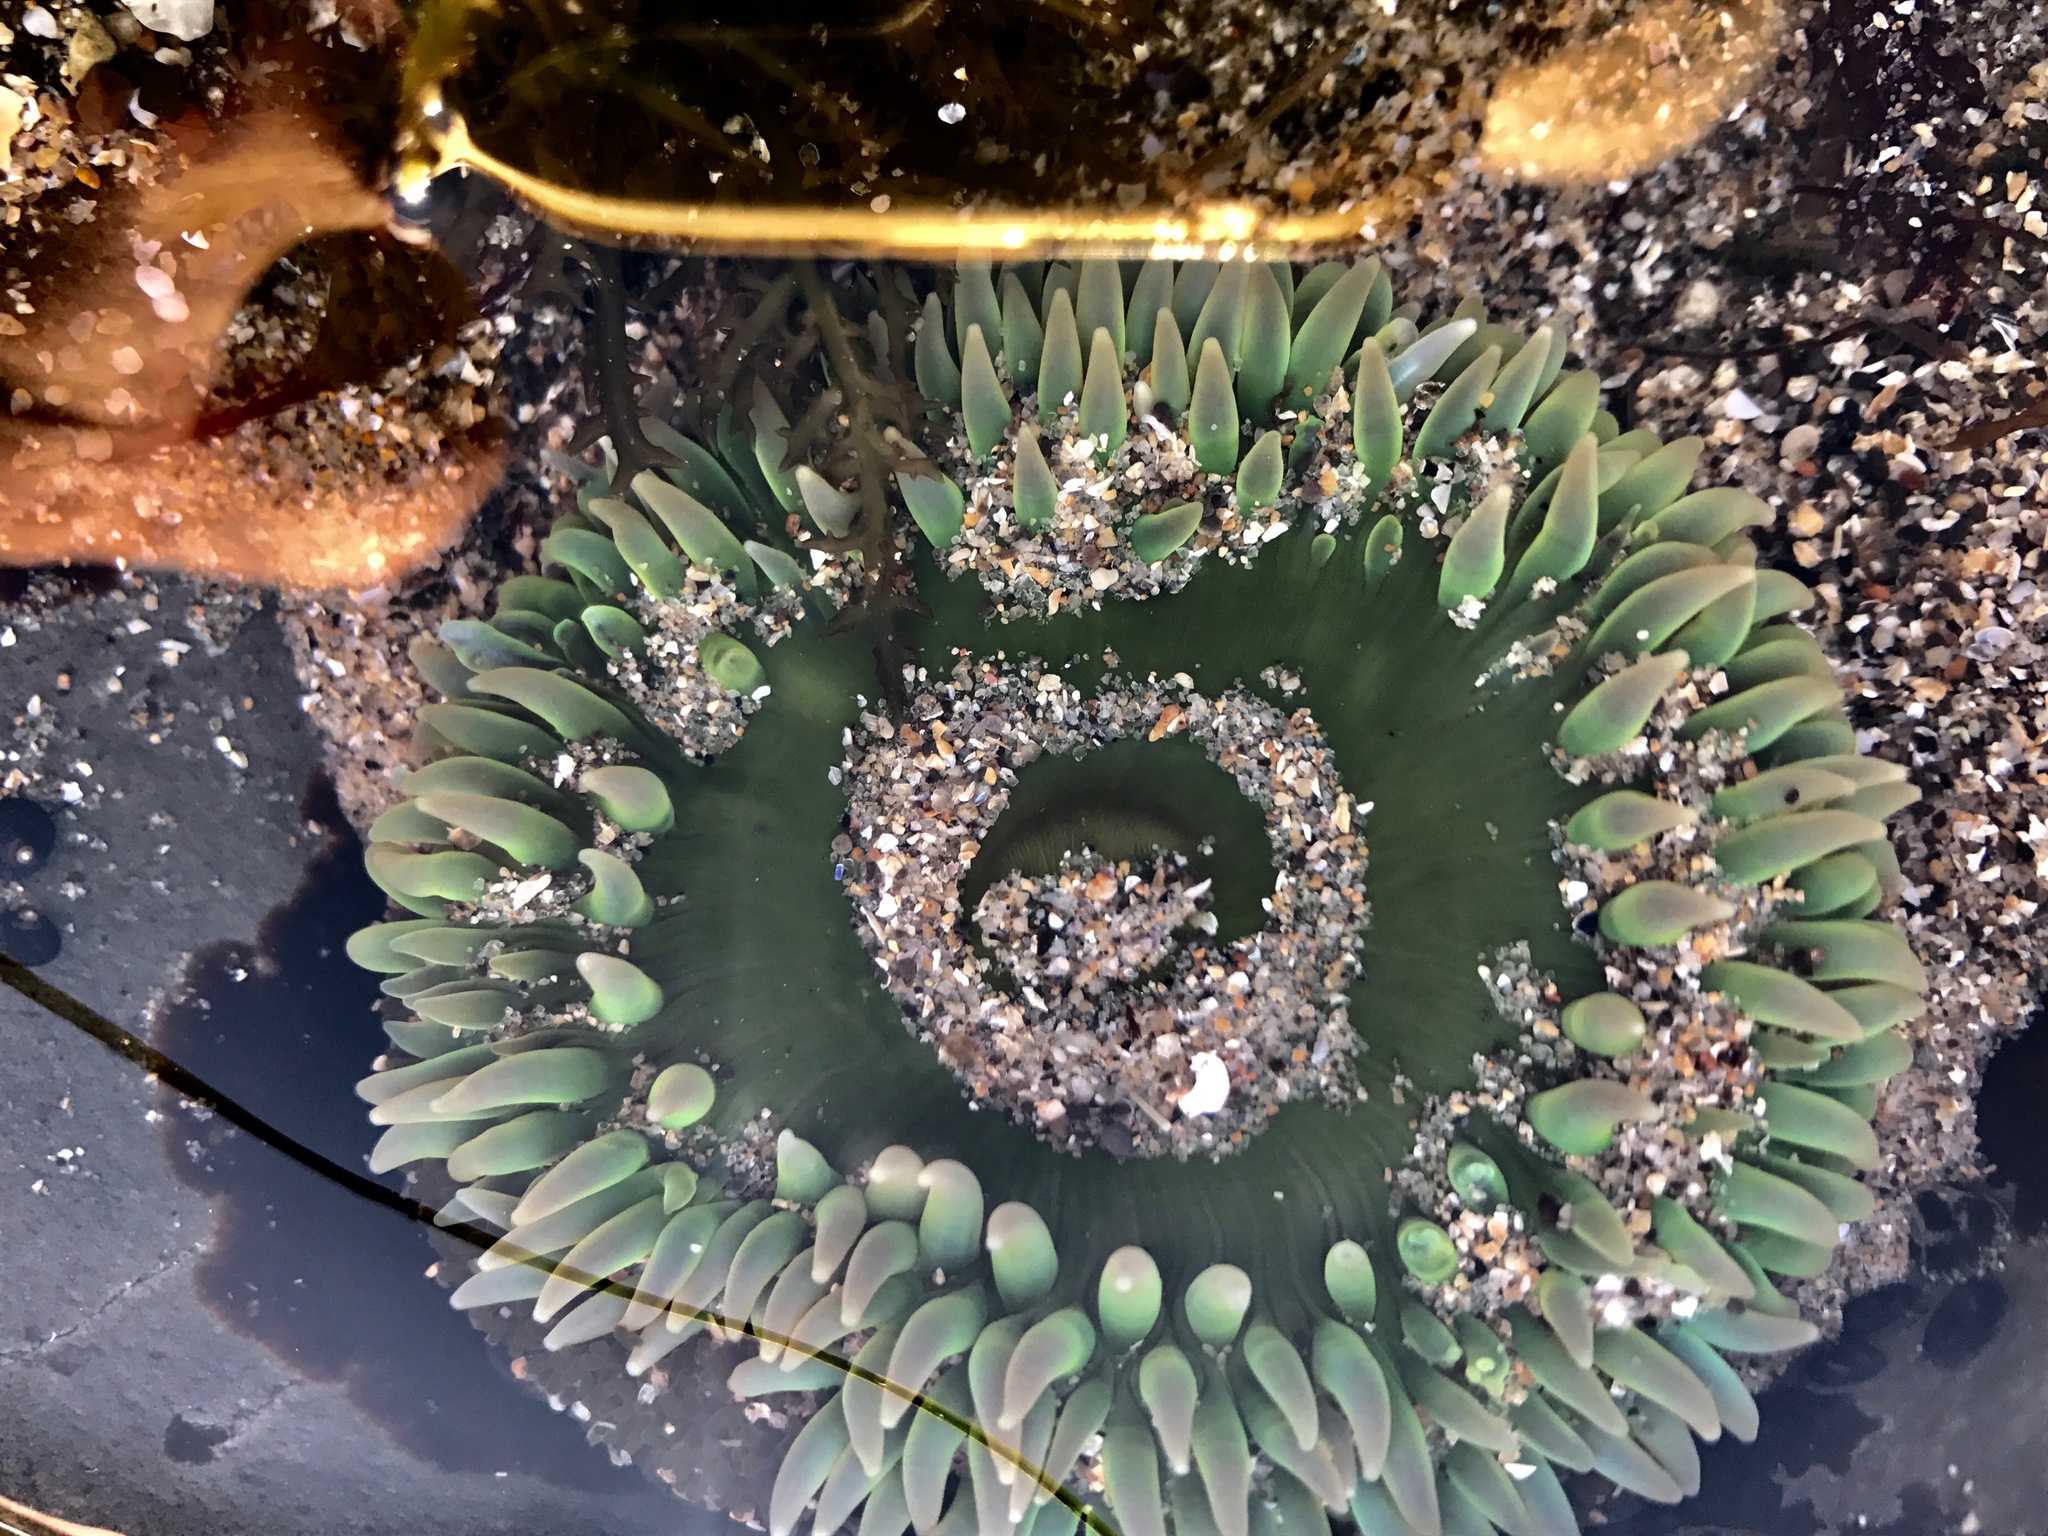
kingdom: Animalia
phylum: Cnidaria
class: Anthozoa
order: Actiniaria
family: Actiniidae
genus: Anthopleura
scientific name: Anthopleura xanthogrammica
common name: Giant green anemone
